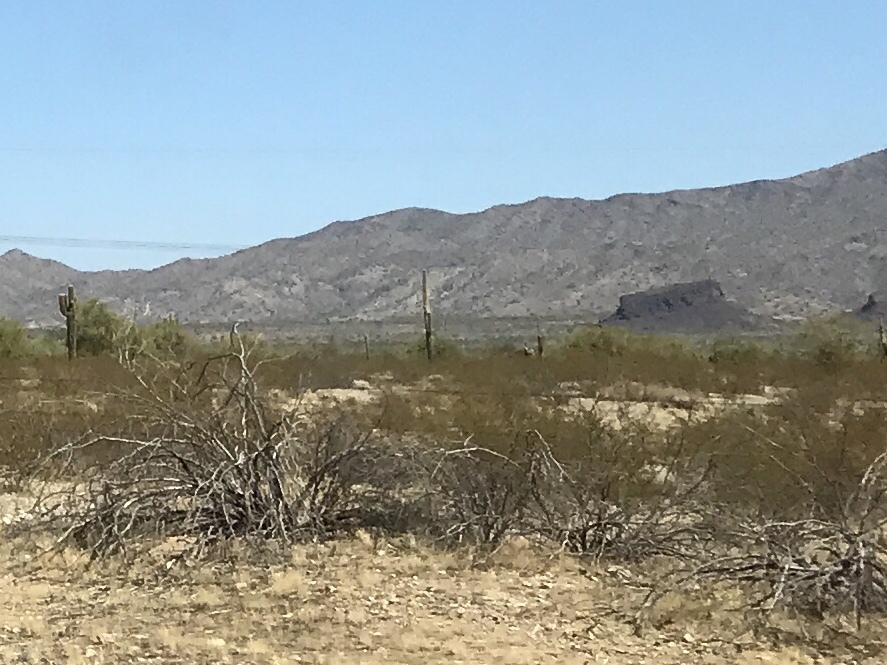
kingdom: Plantae
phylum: Tracheophyta
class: Magnoliopsida
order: Zygophyllales
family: Zygophyllaceae
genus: Larrea
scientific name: Larrea tridentata
